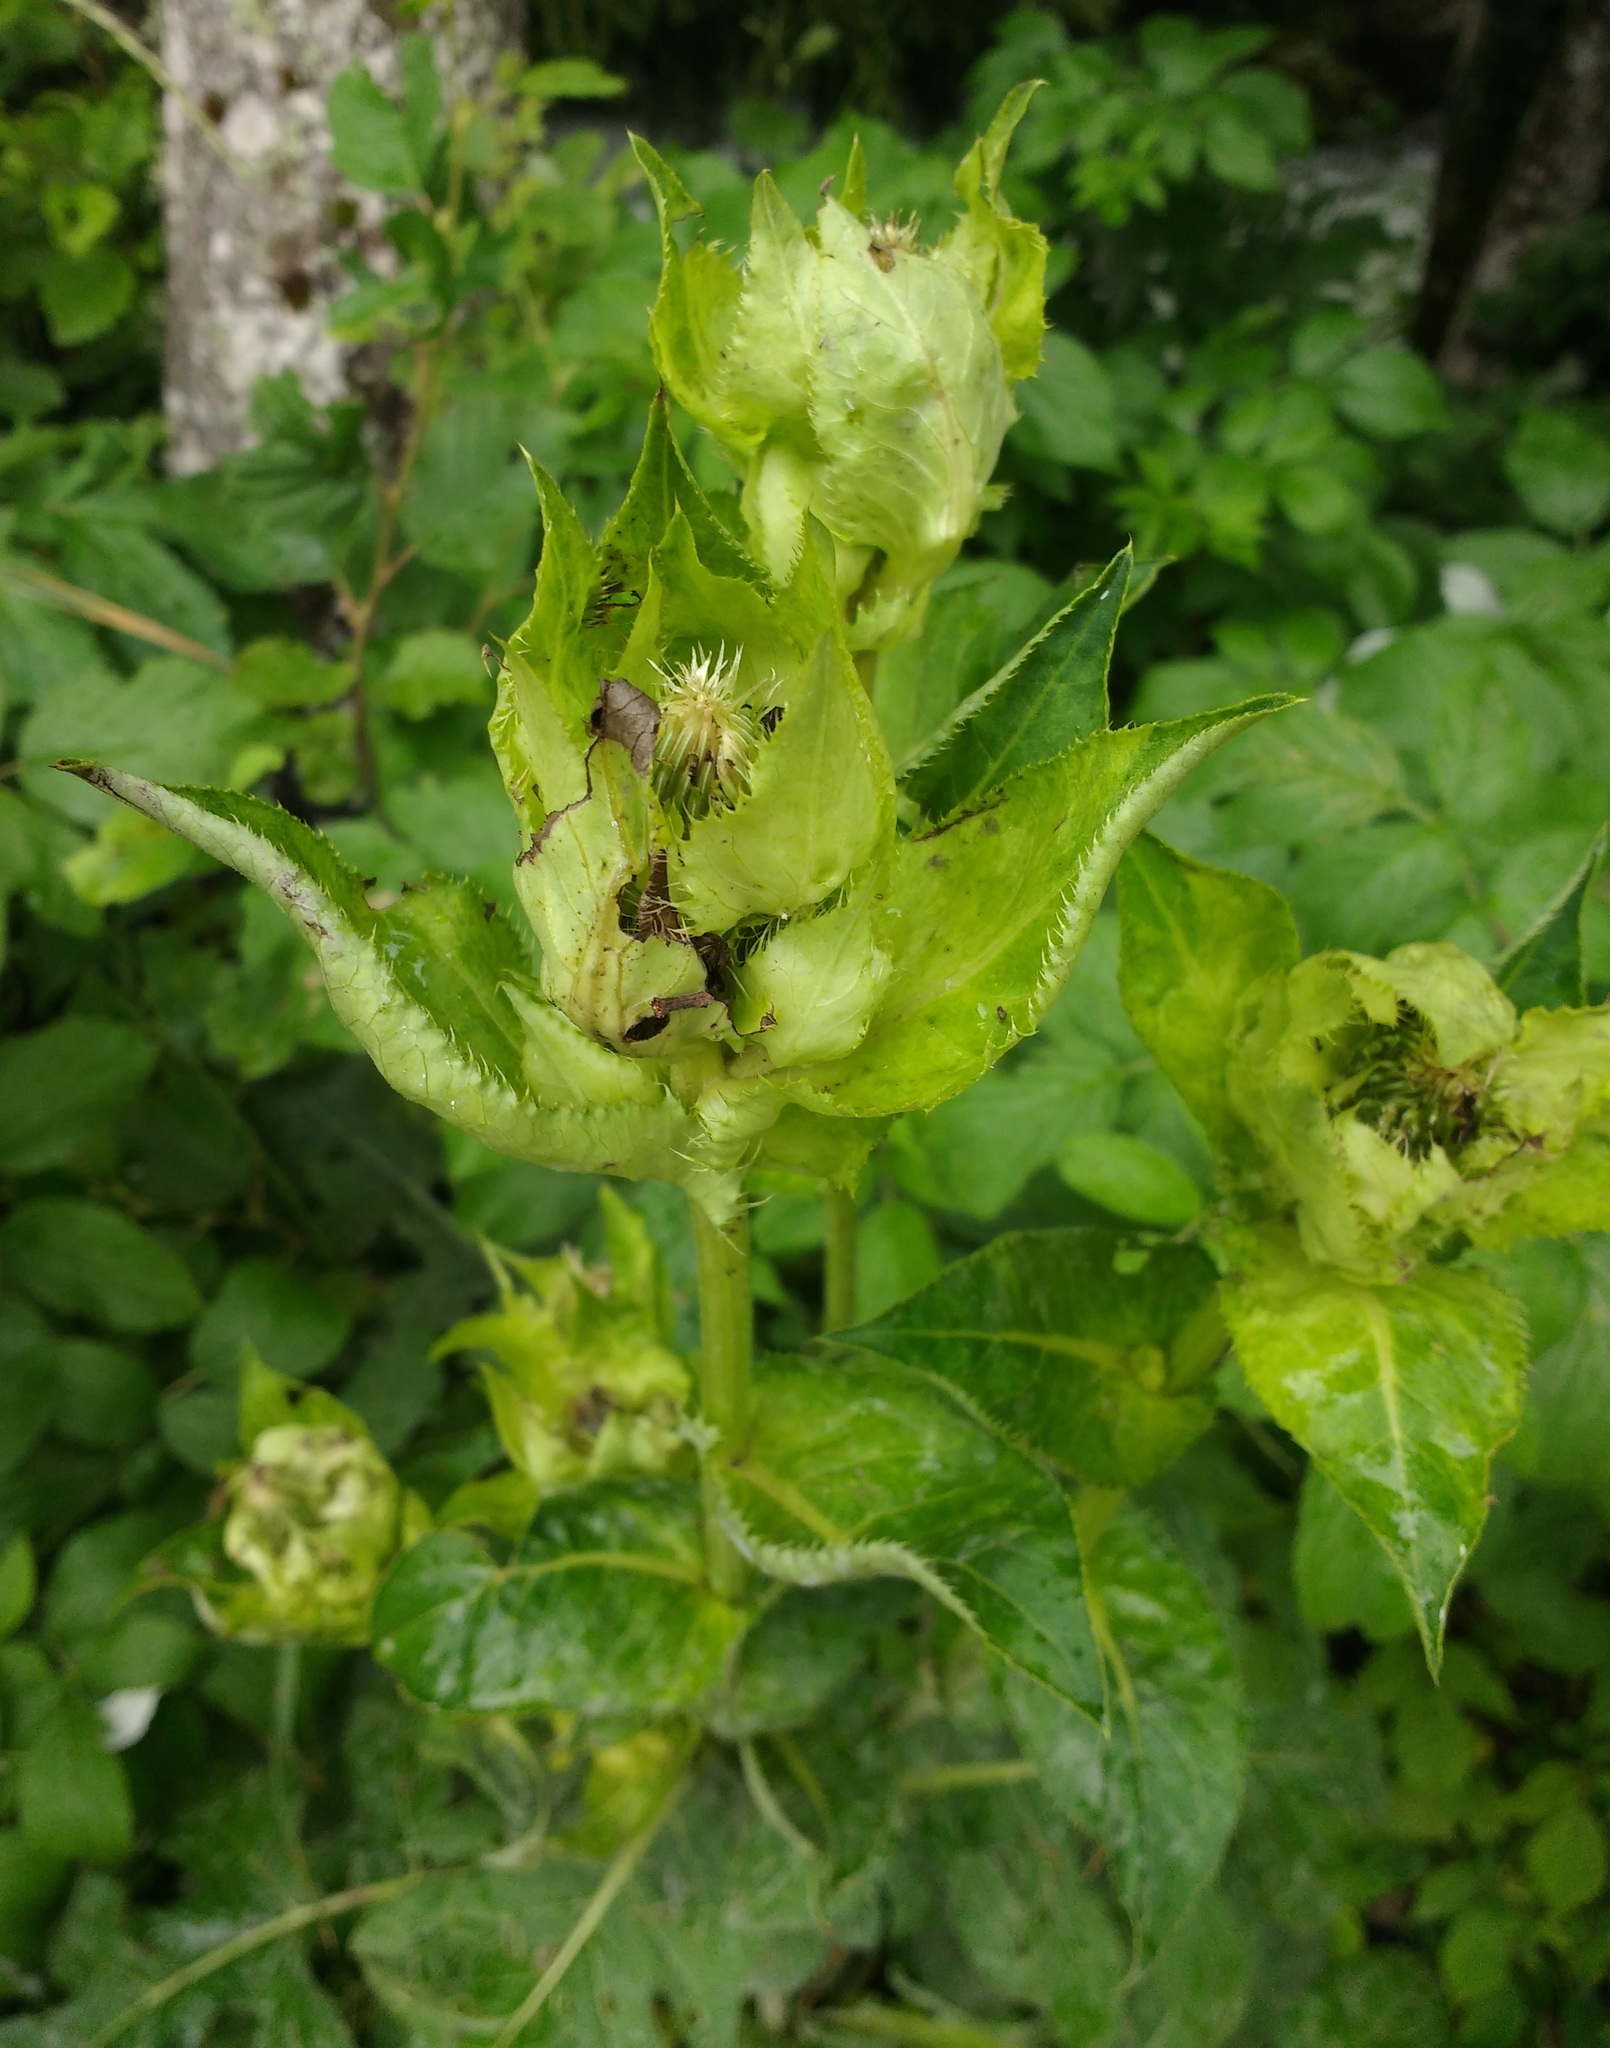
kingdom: Plantae
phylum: Tracheophyta
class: Magnoliopsida
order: Asterales
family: Asteraceae
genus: Cirsium
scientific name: Cirsium oleraceum
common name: Cabbage thistle
